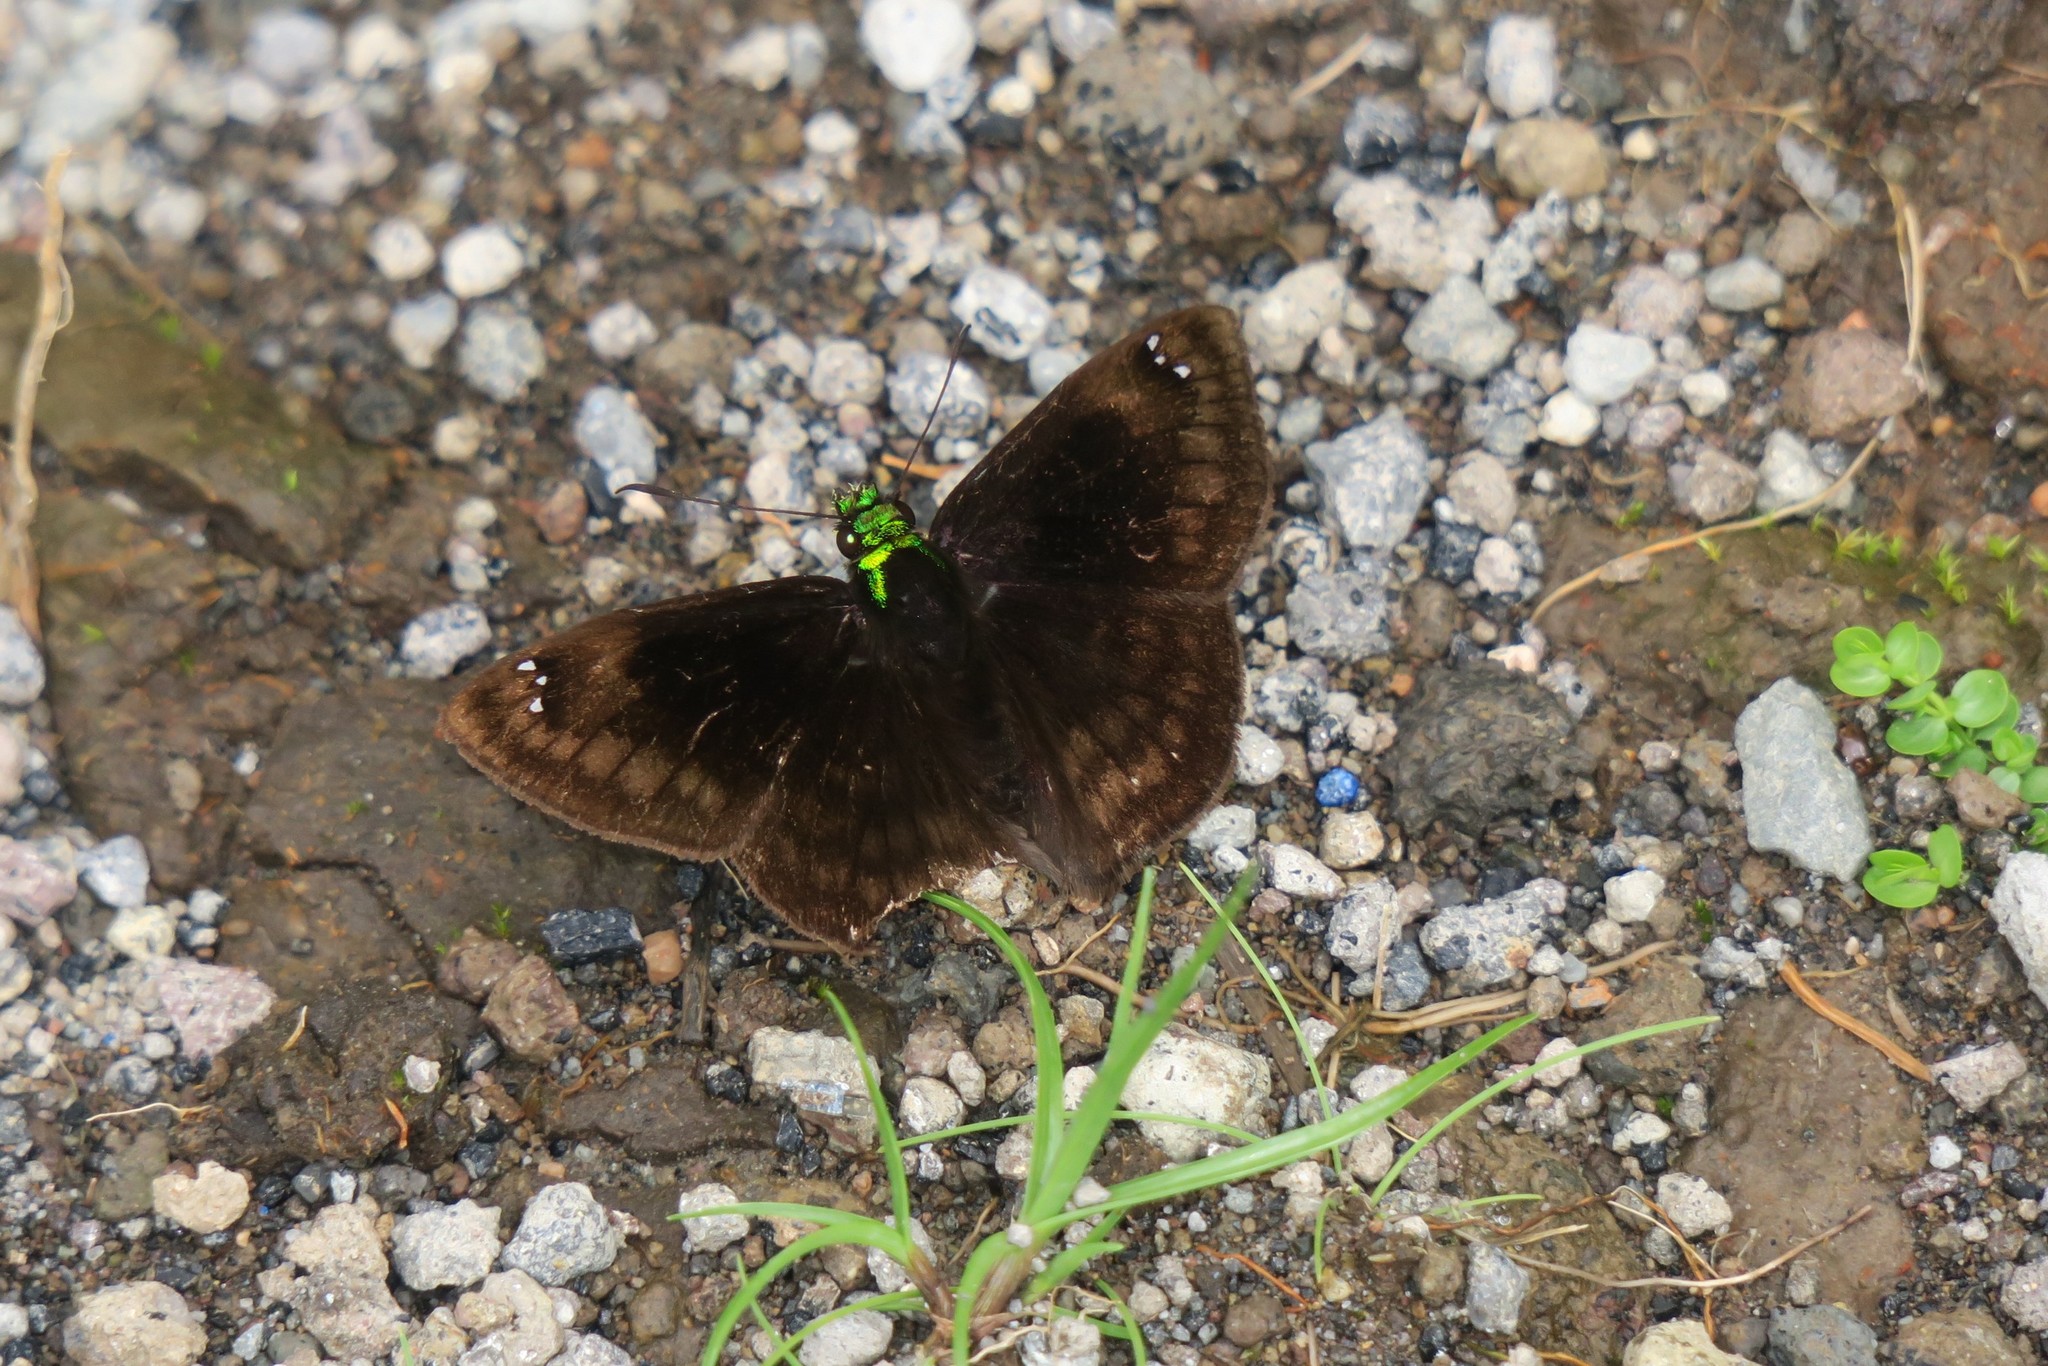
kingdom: Animalia
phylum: Arthropoda
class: Insecta
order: Lepidoptera
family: Hesperiidae
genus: Gorgopas
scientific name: Gorgopas chlorocephala
